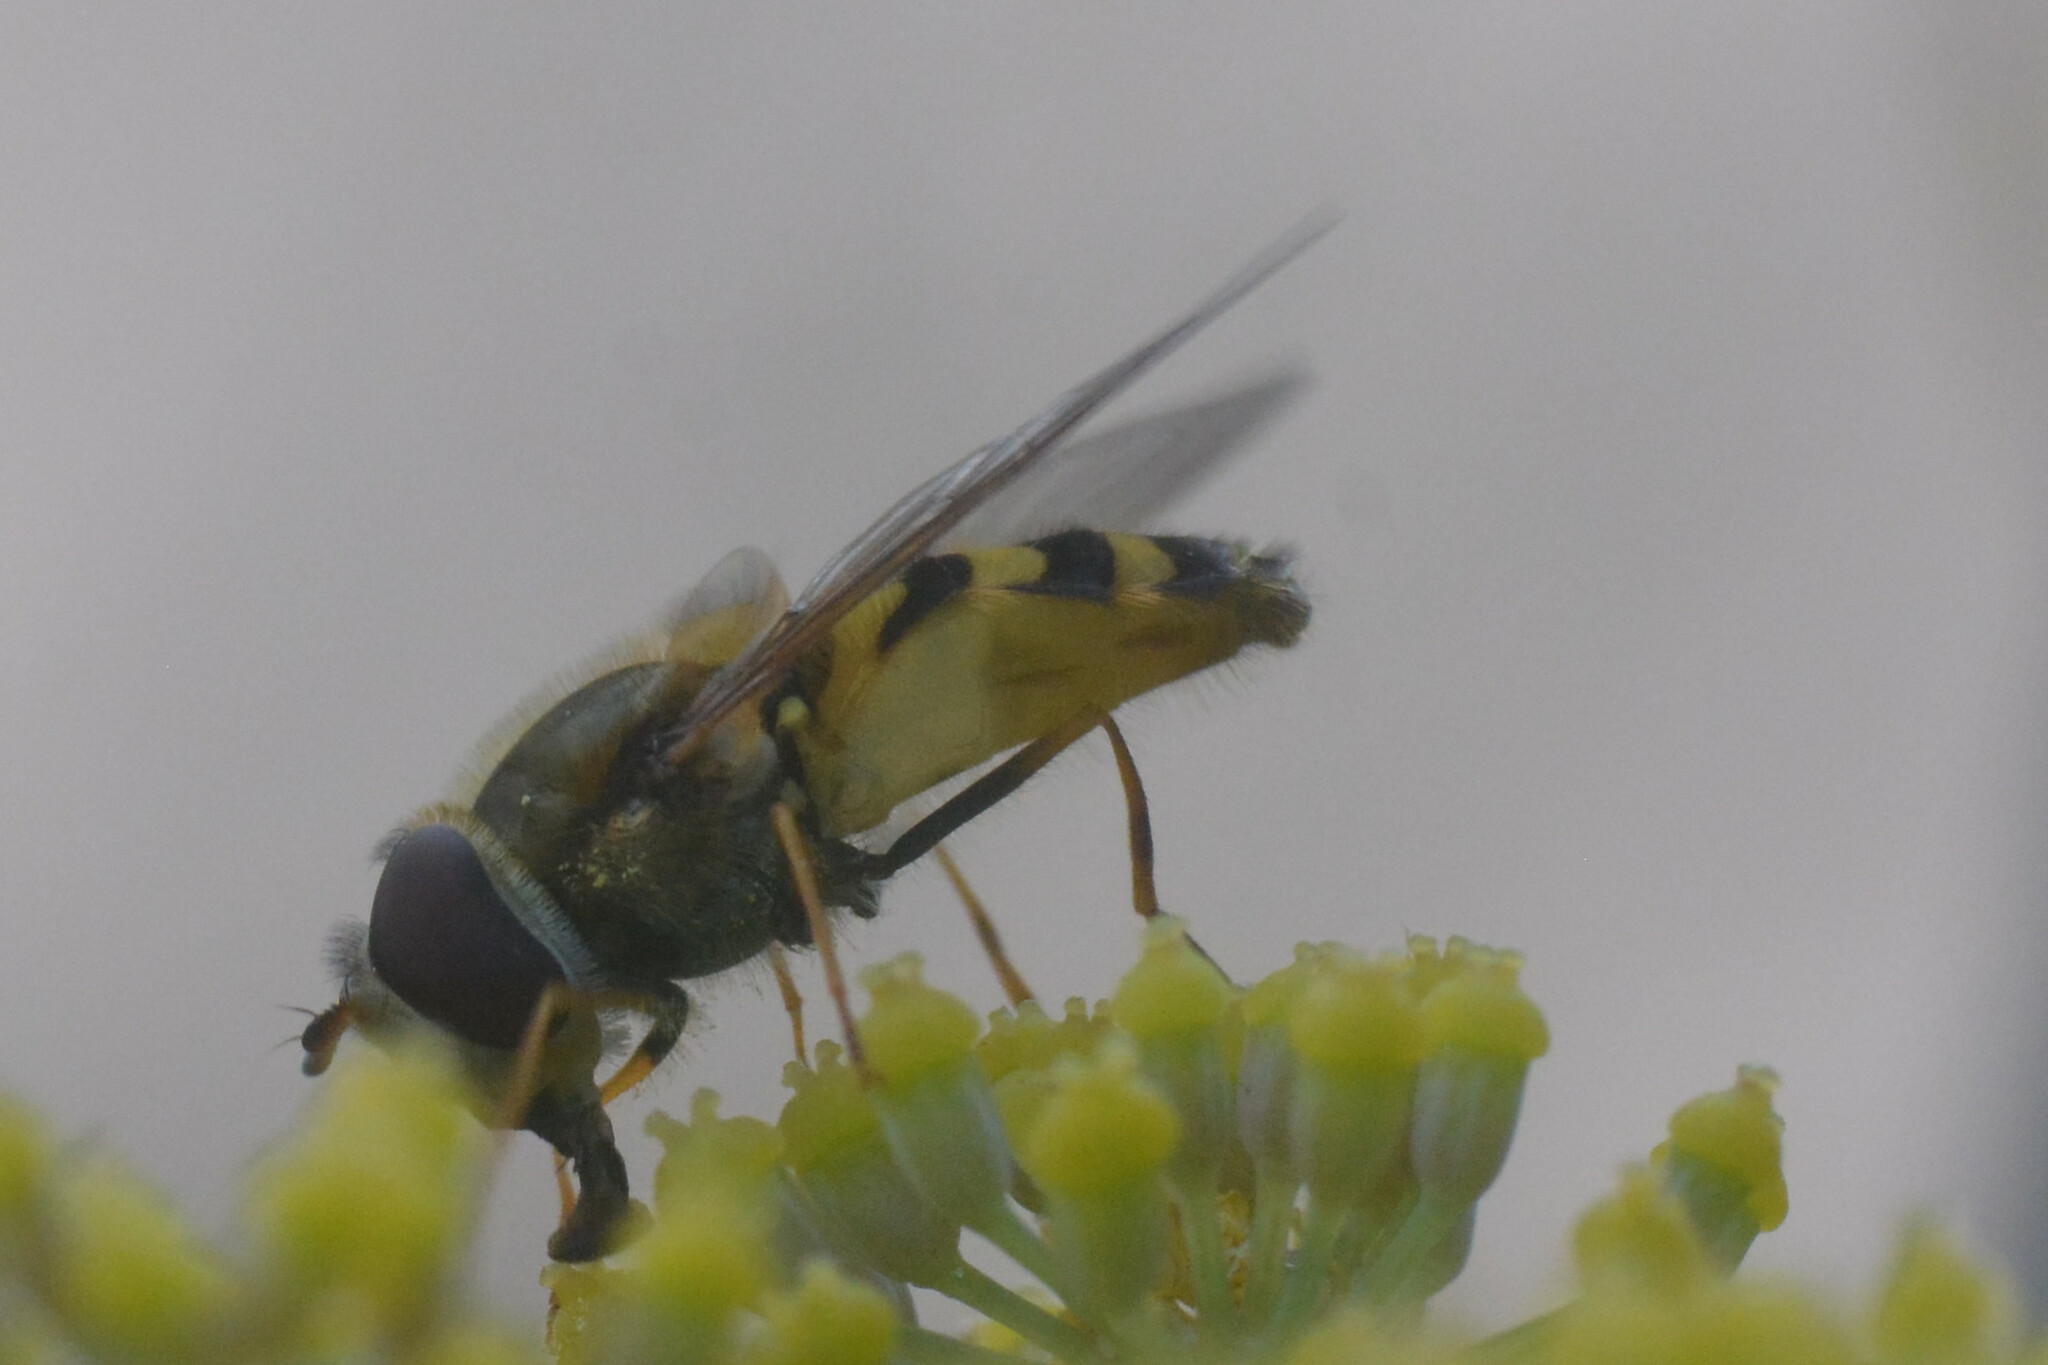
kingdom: Animalia
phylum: Arthropoda
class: Insecta
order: Diptera
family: Syrphidae
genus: Syrphus
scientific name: Syrphus
